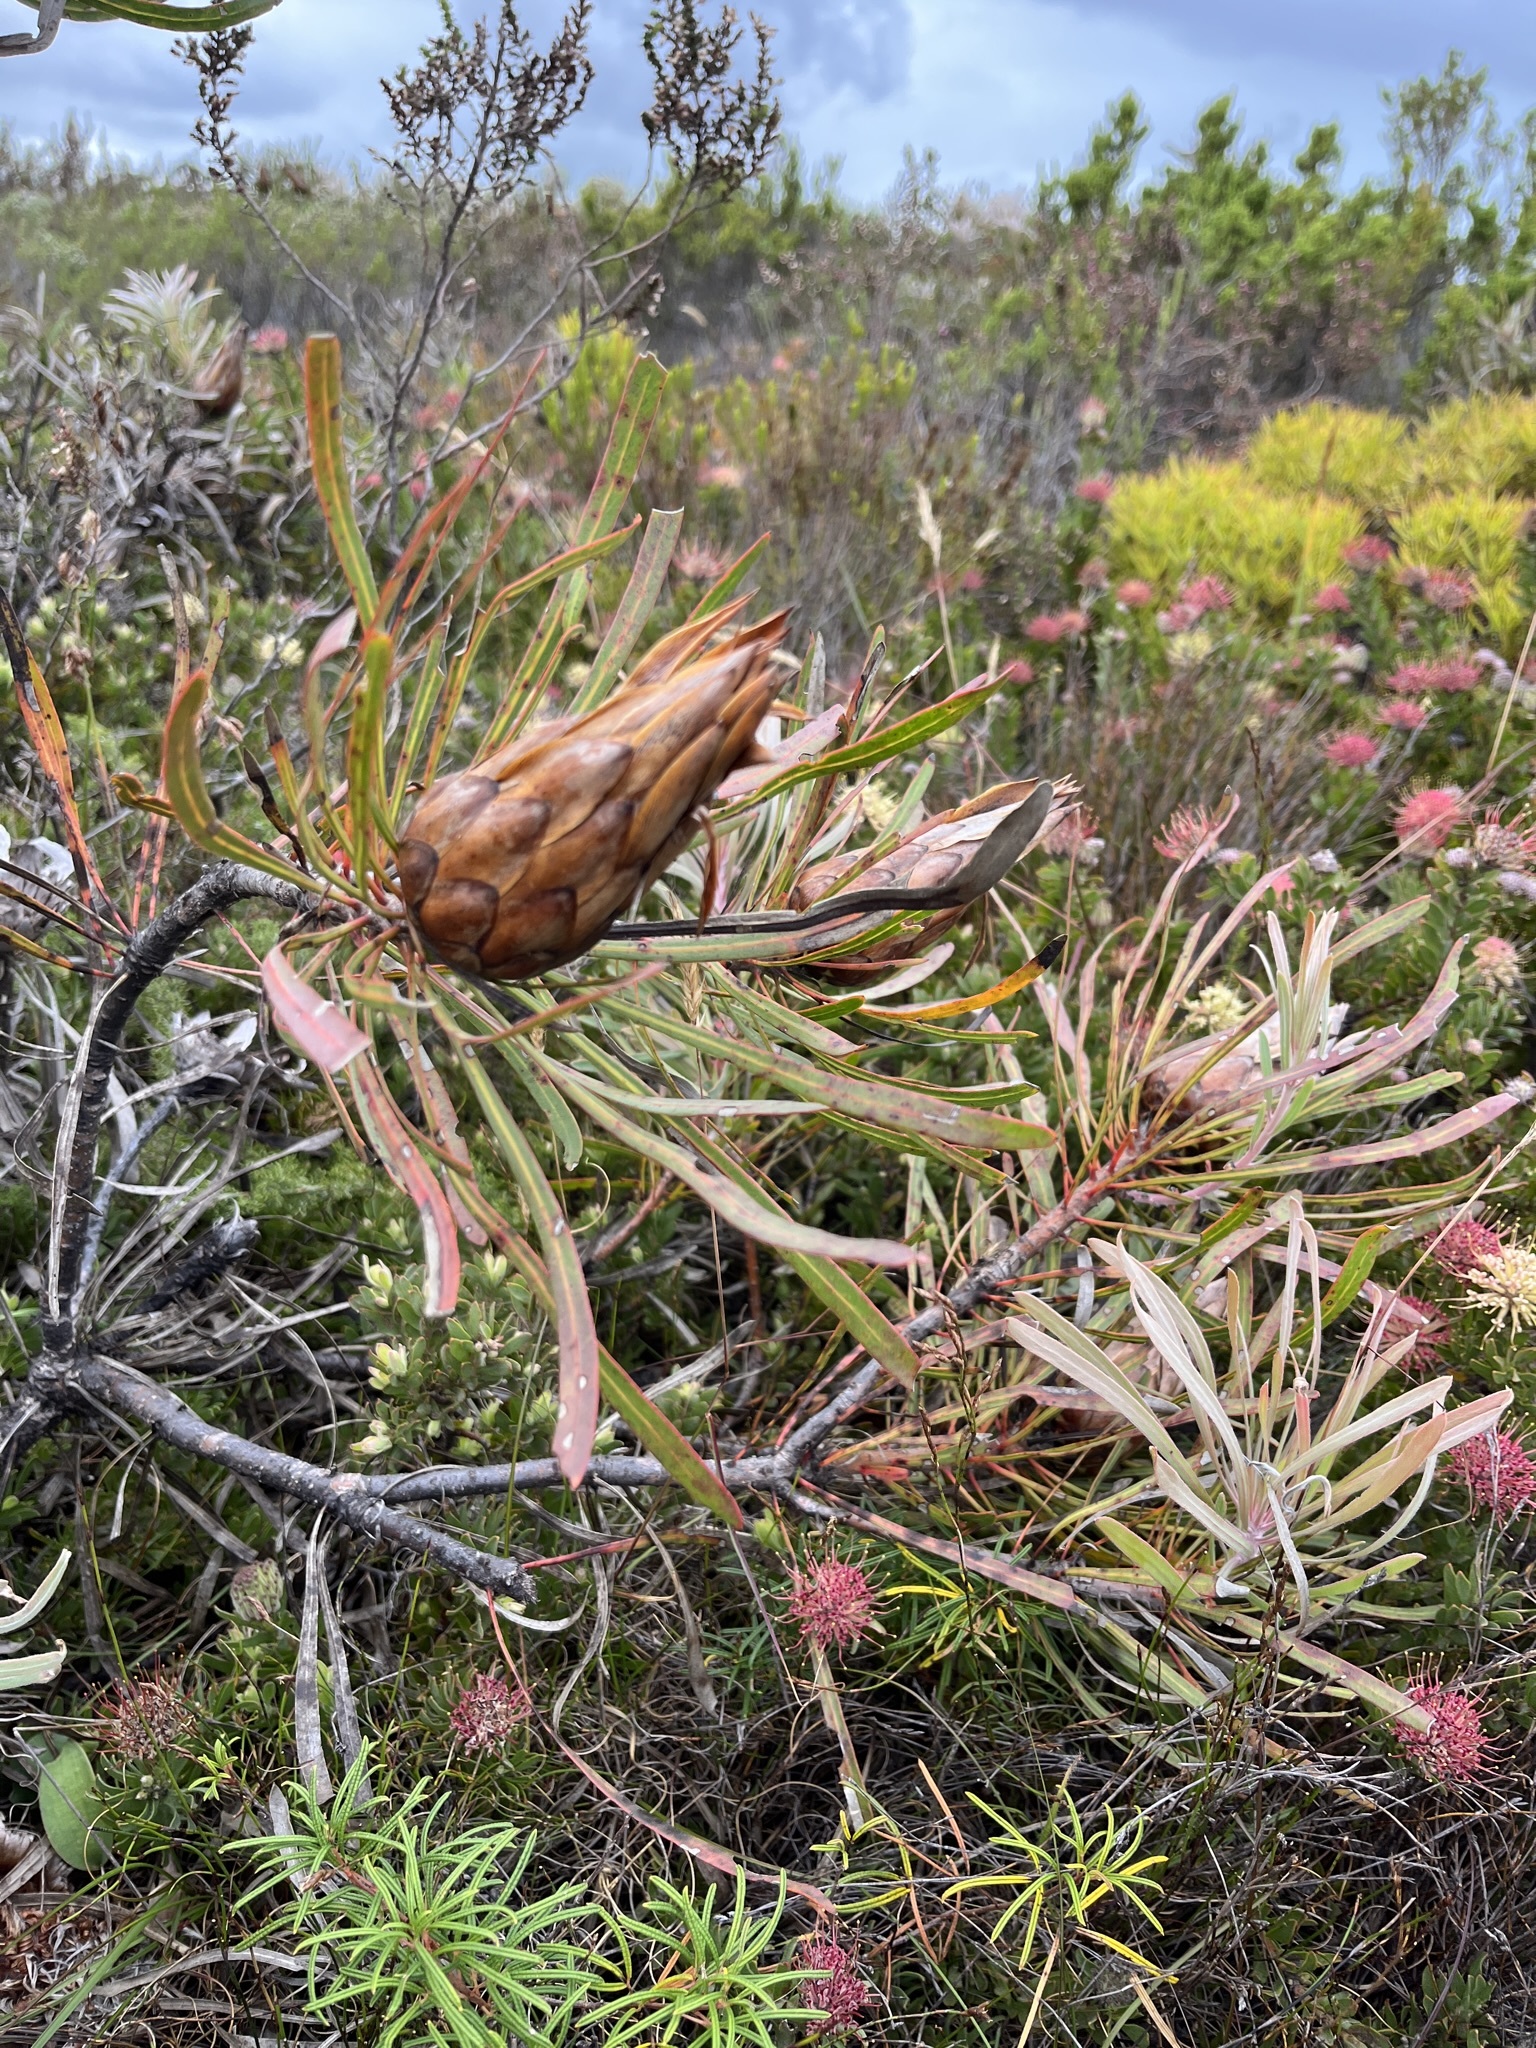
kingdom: Plantae
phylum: Tracheophyta
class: Magnoliopsida
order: Proteales
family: Proteaceae
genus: Protea
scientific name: Protea longifolia
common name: Long-leaf sugarbush
